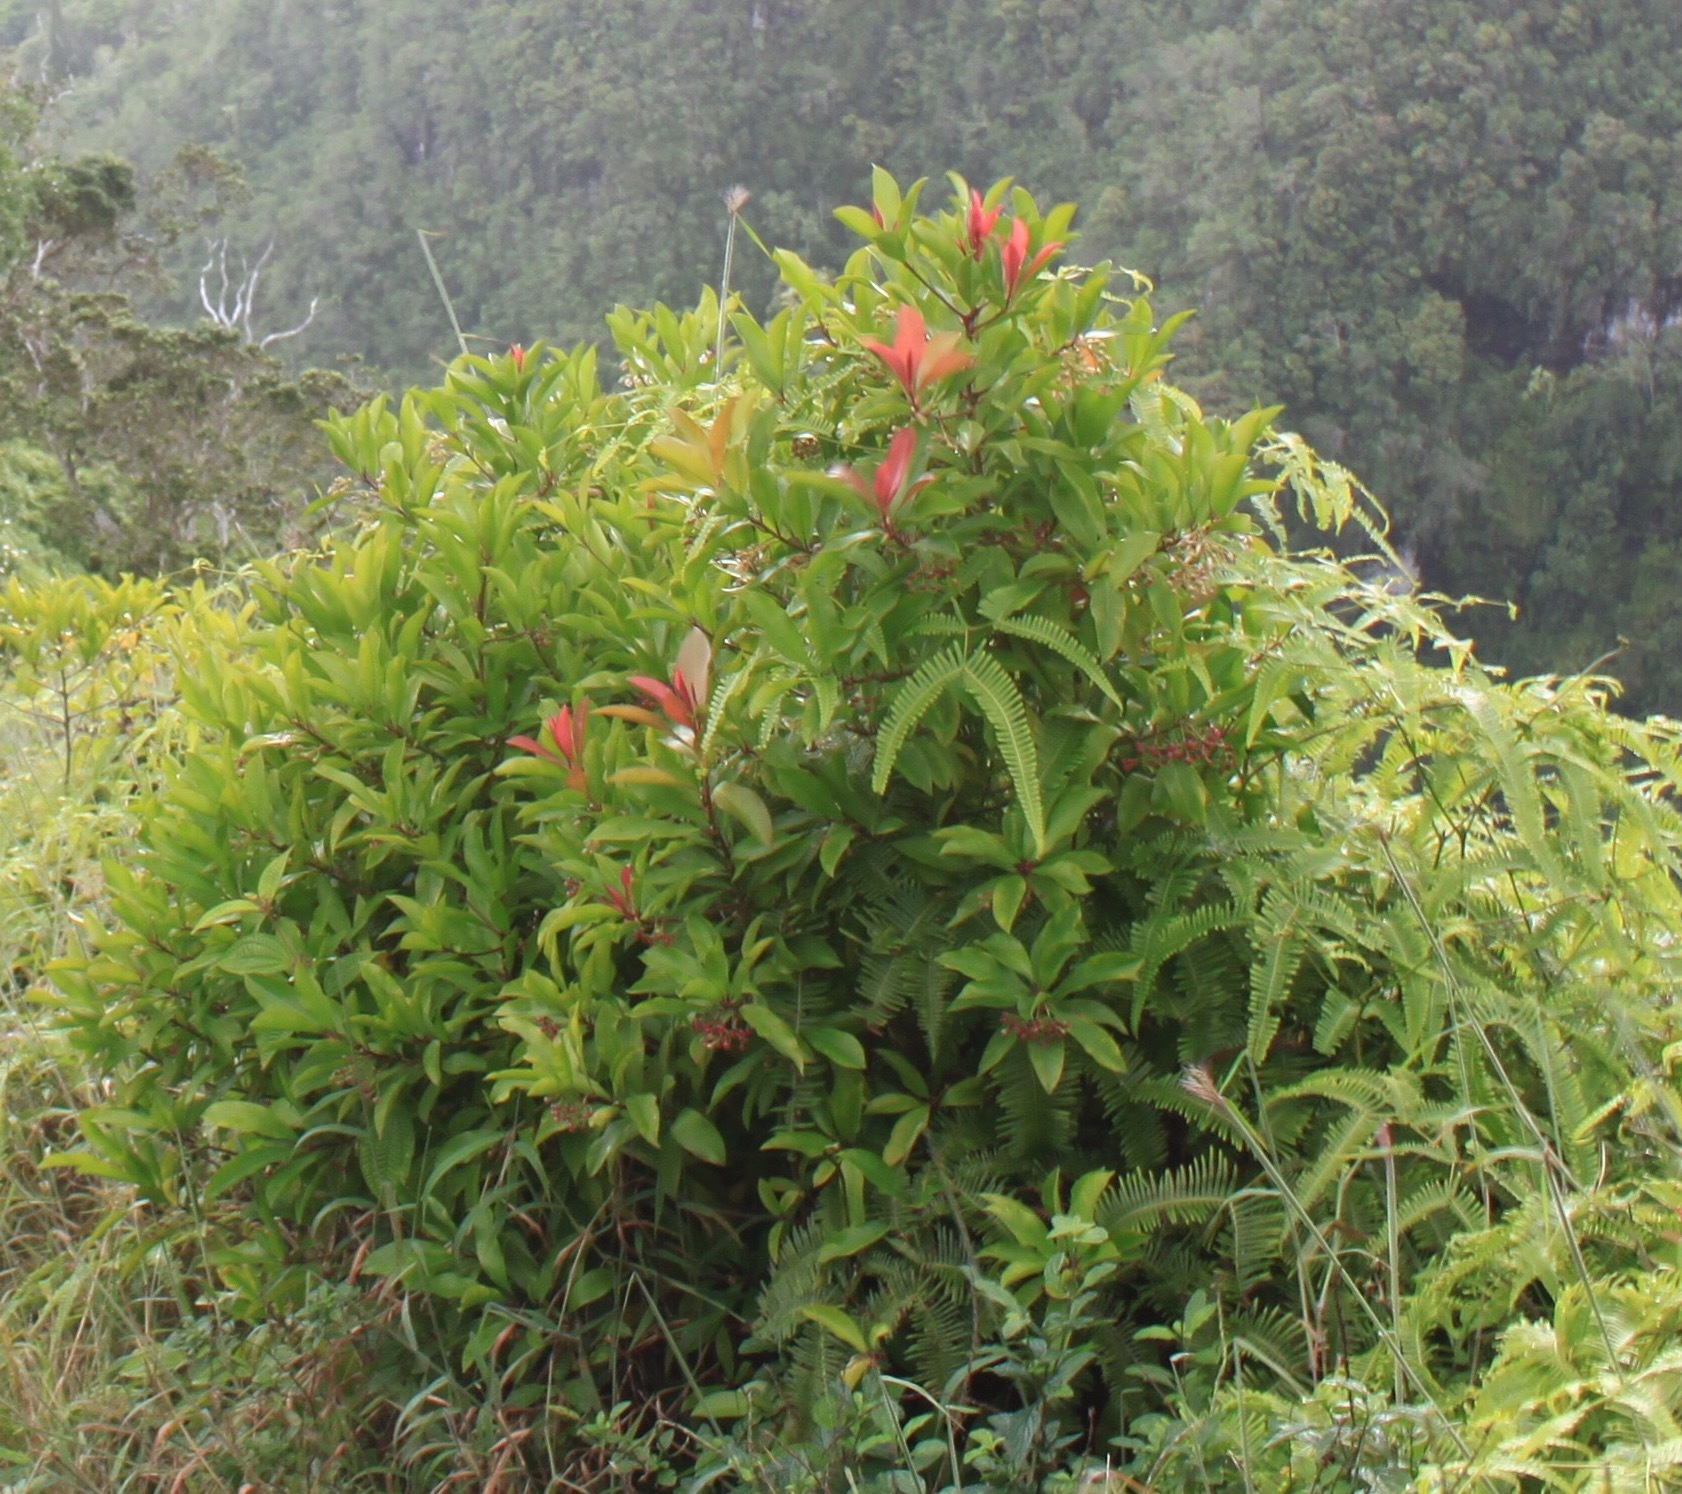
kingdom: Plantae
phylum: Tracheophyta
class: Magnoliopsida
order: Ericales
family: Primulaceae
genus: Ardisia
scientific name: Ardisia elliptica
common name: Shoebutton
